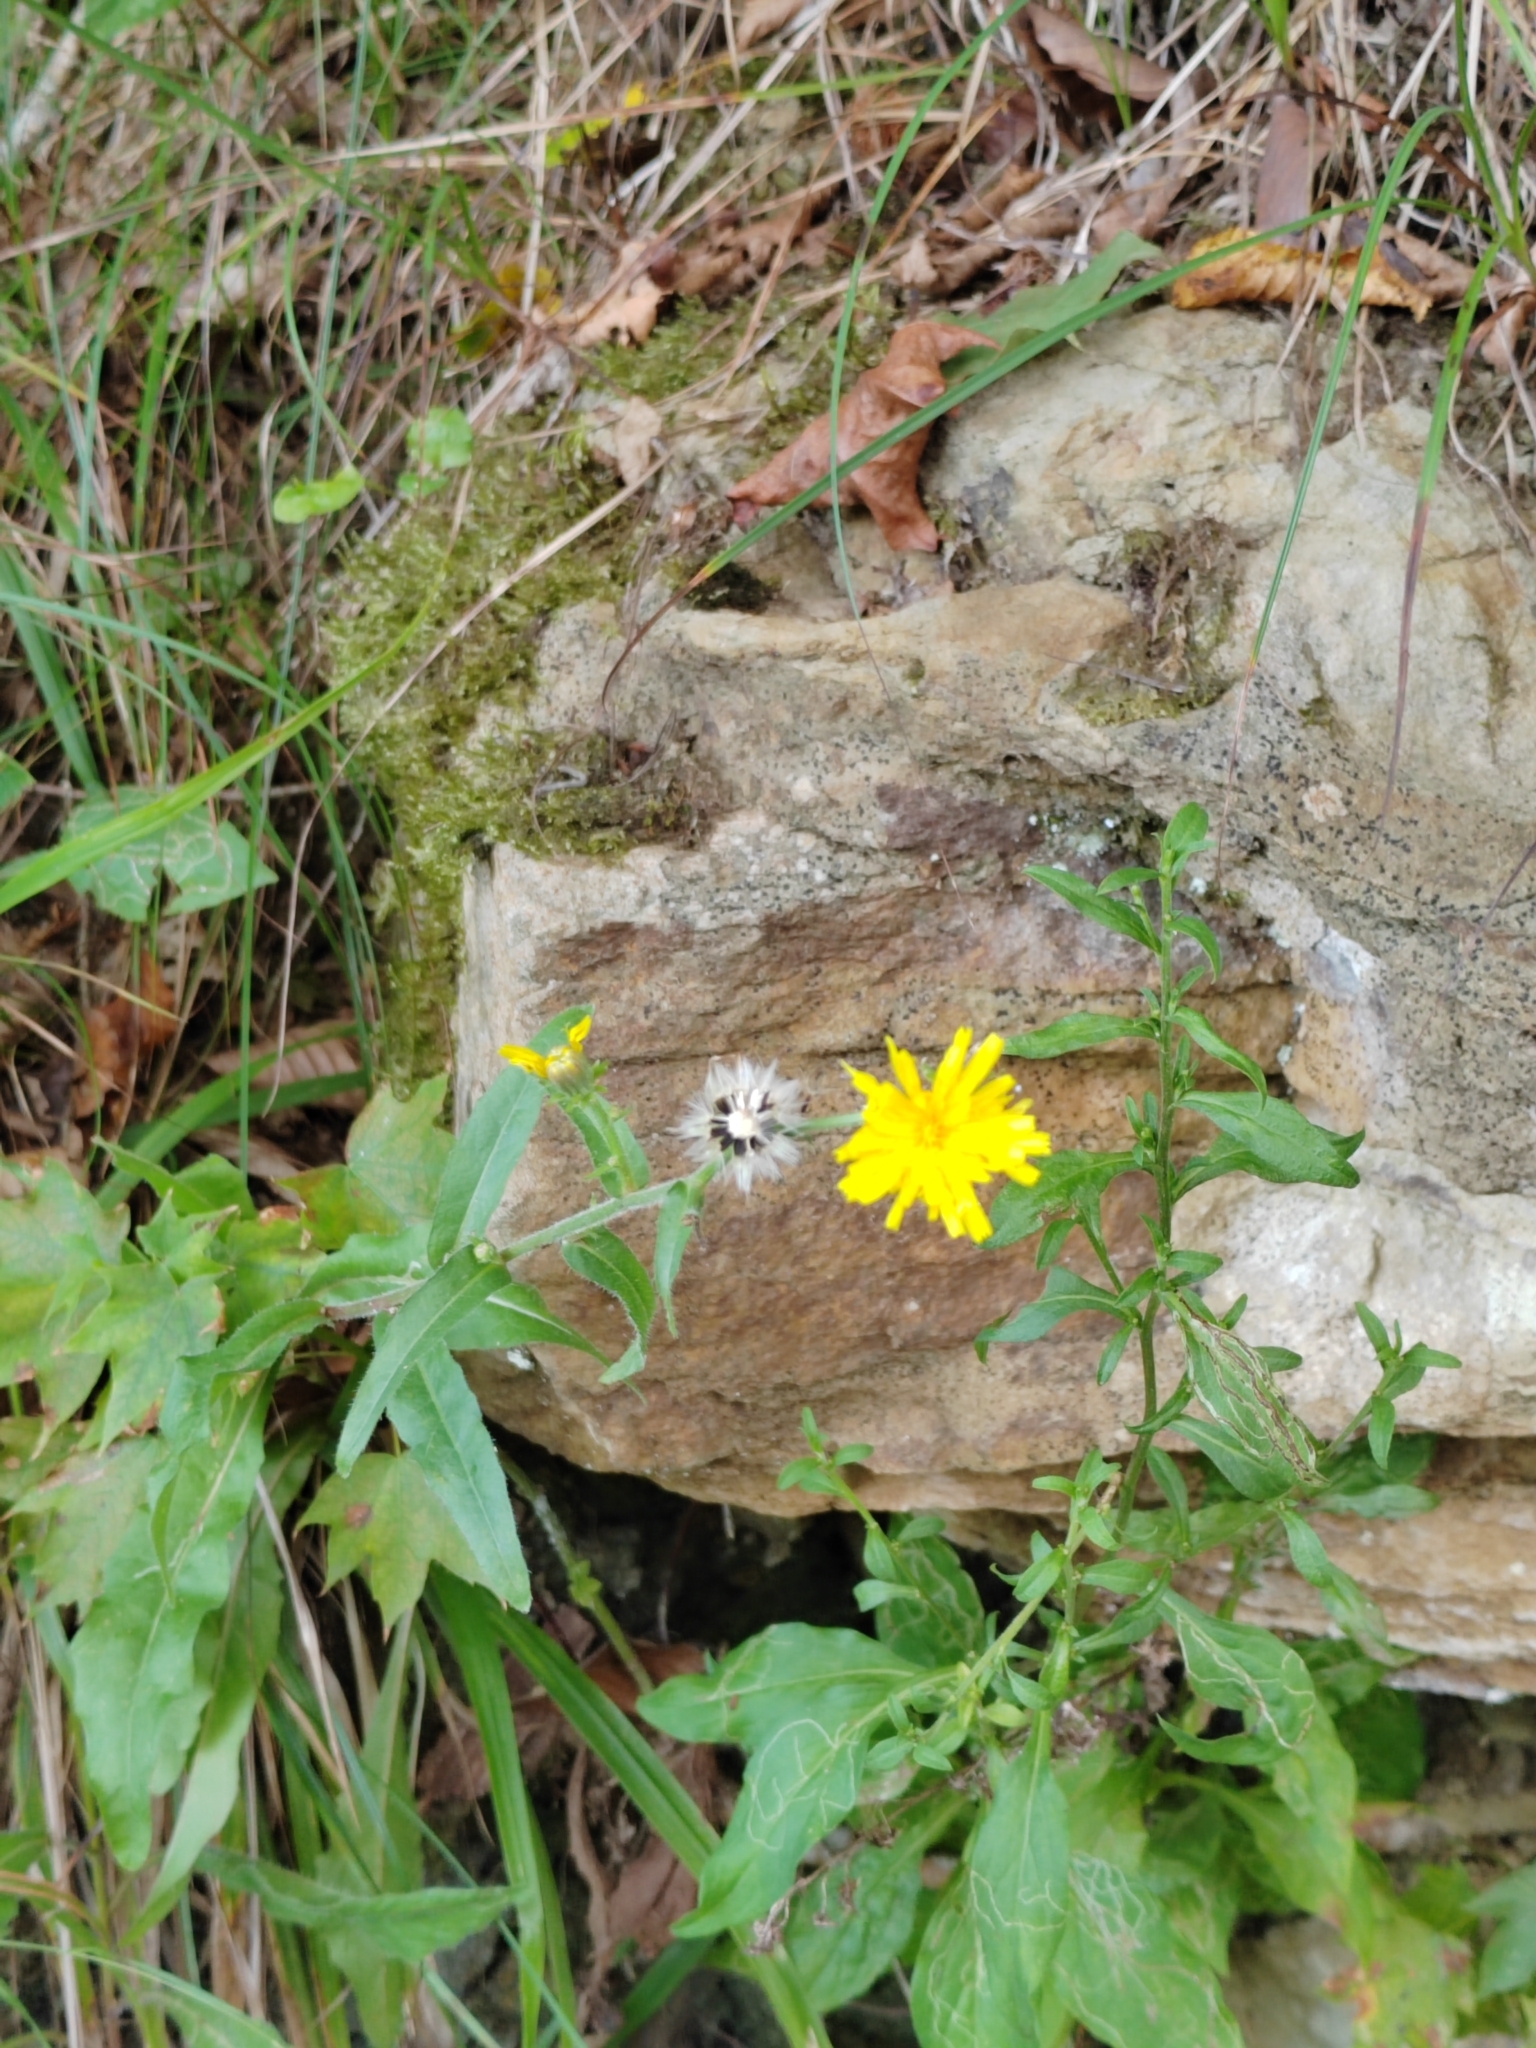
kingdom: Plantae
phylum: Tracheophyta
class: Magnoliopsida
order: Asterales
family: Asteraceae
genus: Picris
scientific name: Picris hieracioides
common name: Hawkweed oxtongue
